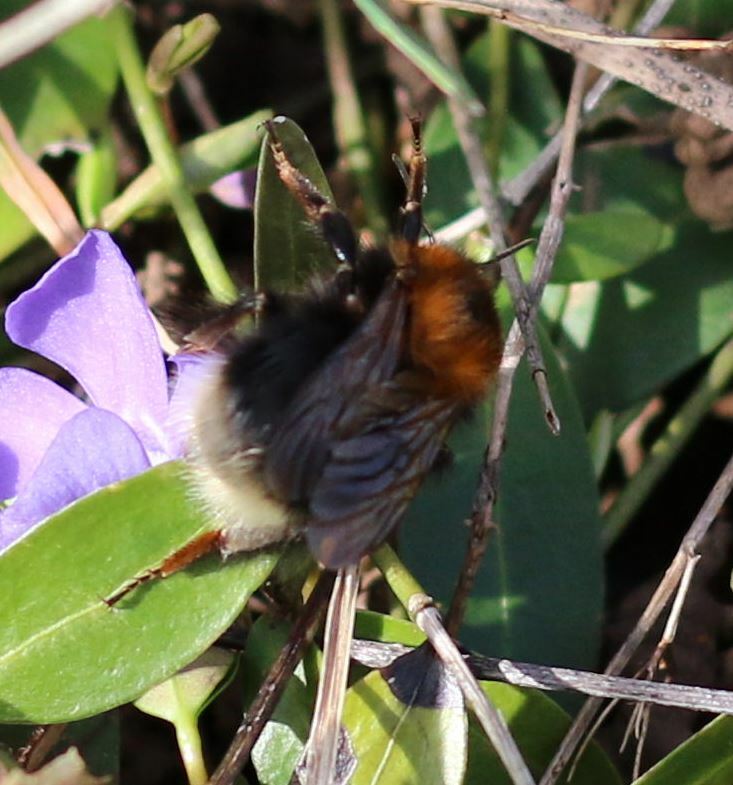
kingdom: Animalia
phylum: Arthropoda
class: Insecta
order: Hymenoptera
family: Apidae
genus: Bombus
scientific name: Bombus hypnorum
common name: New garden bumblebee
